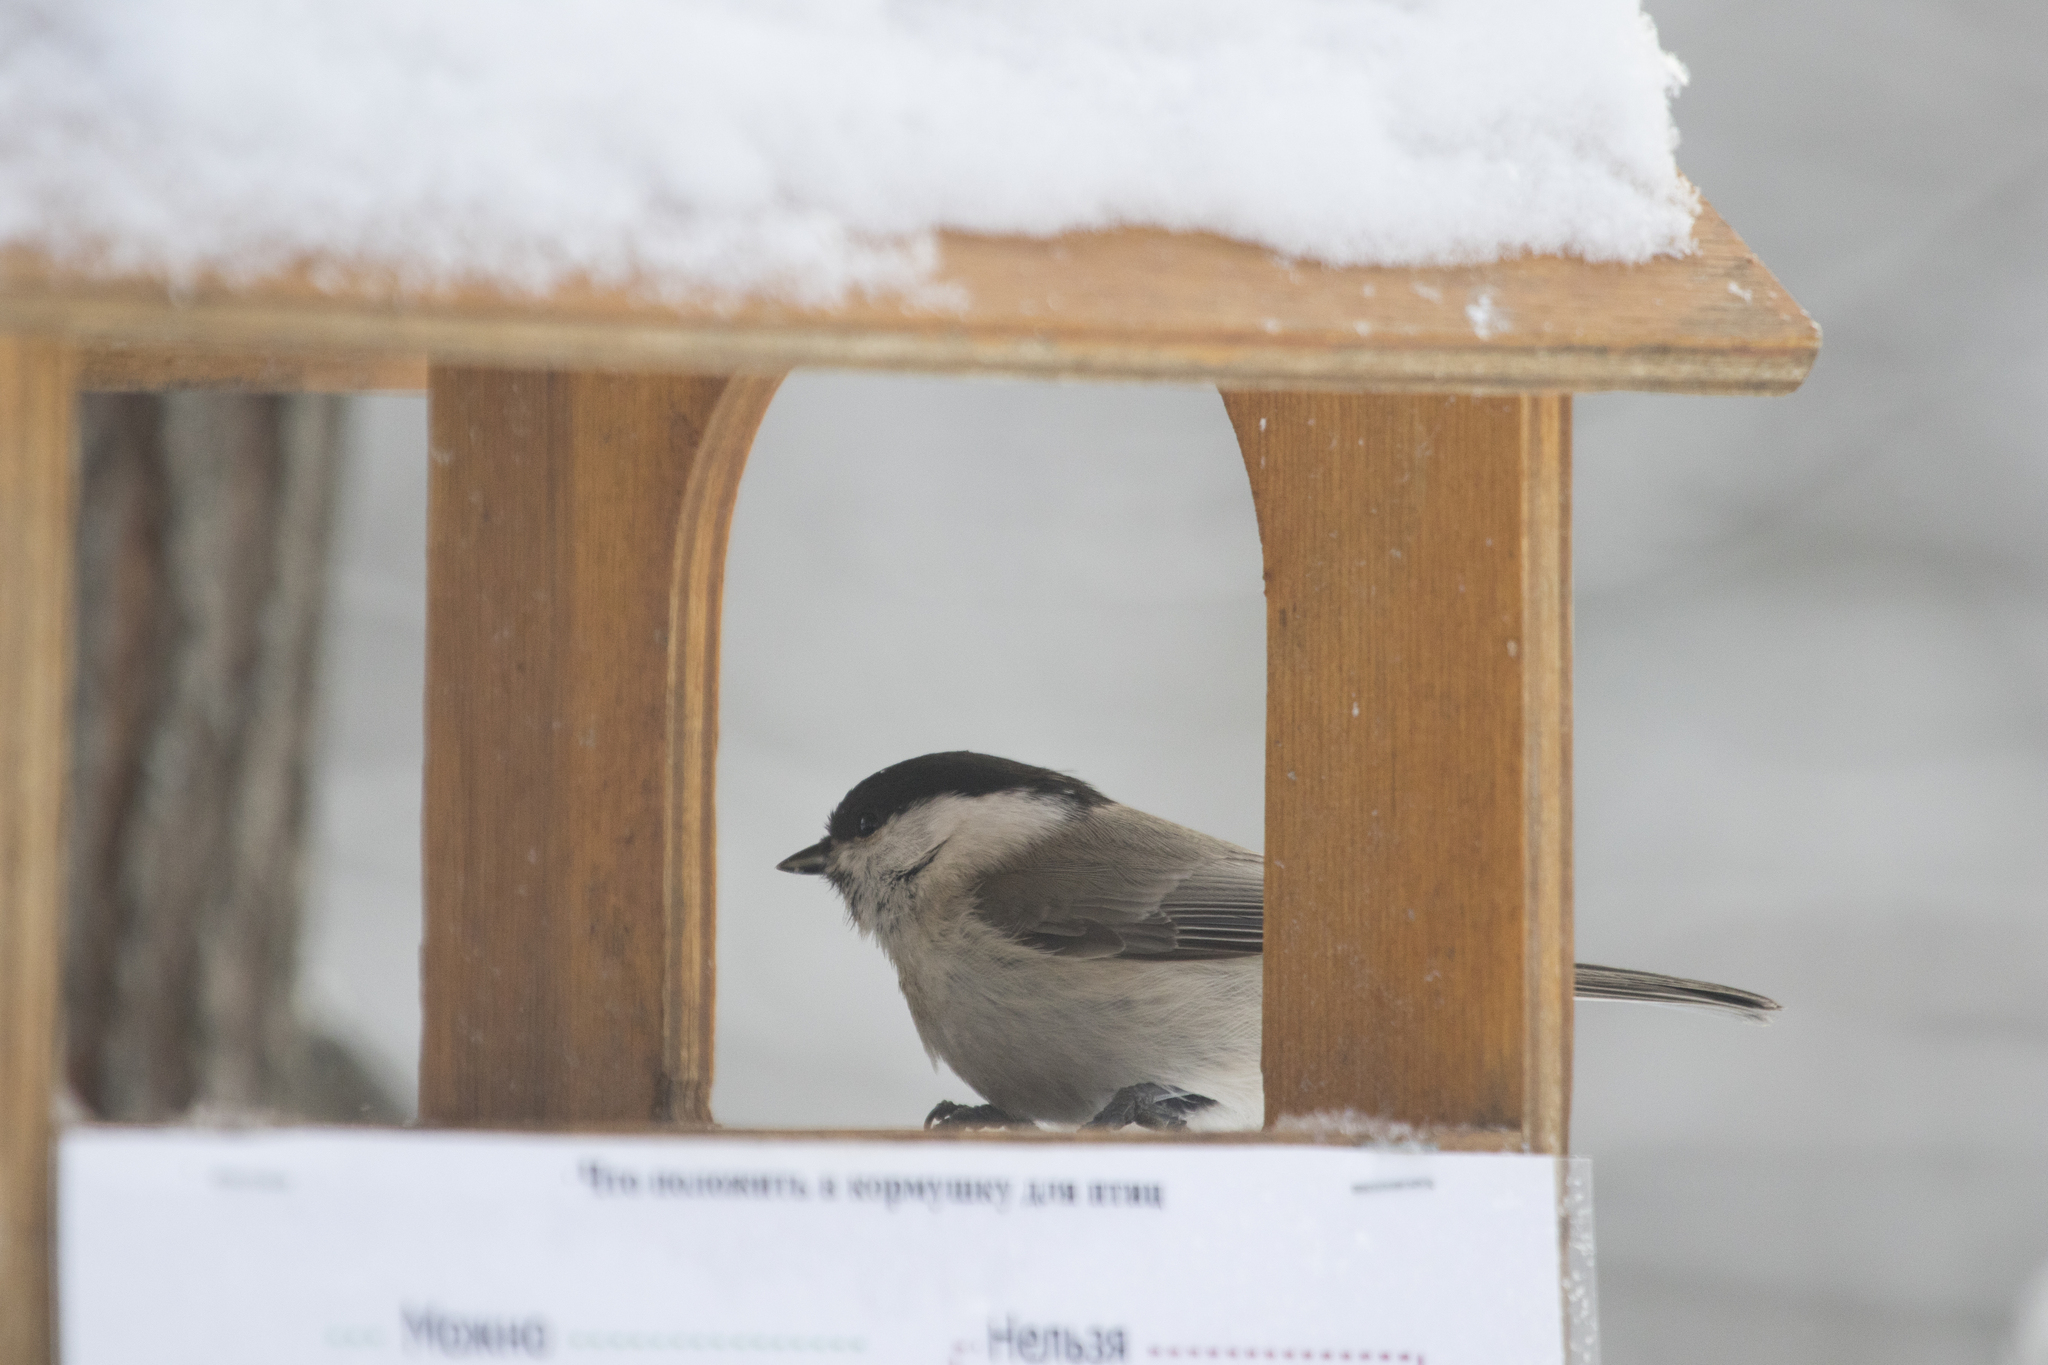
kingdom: Animalia
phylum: Chordata
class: Aves
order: Passeriformes
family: Paridae
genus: Poecile
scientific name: Poecile palustris
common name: Marsh tit
